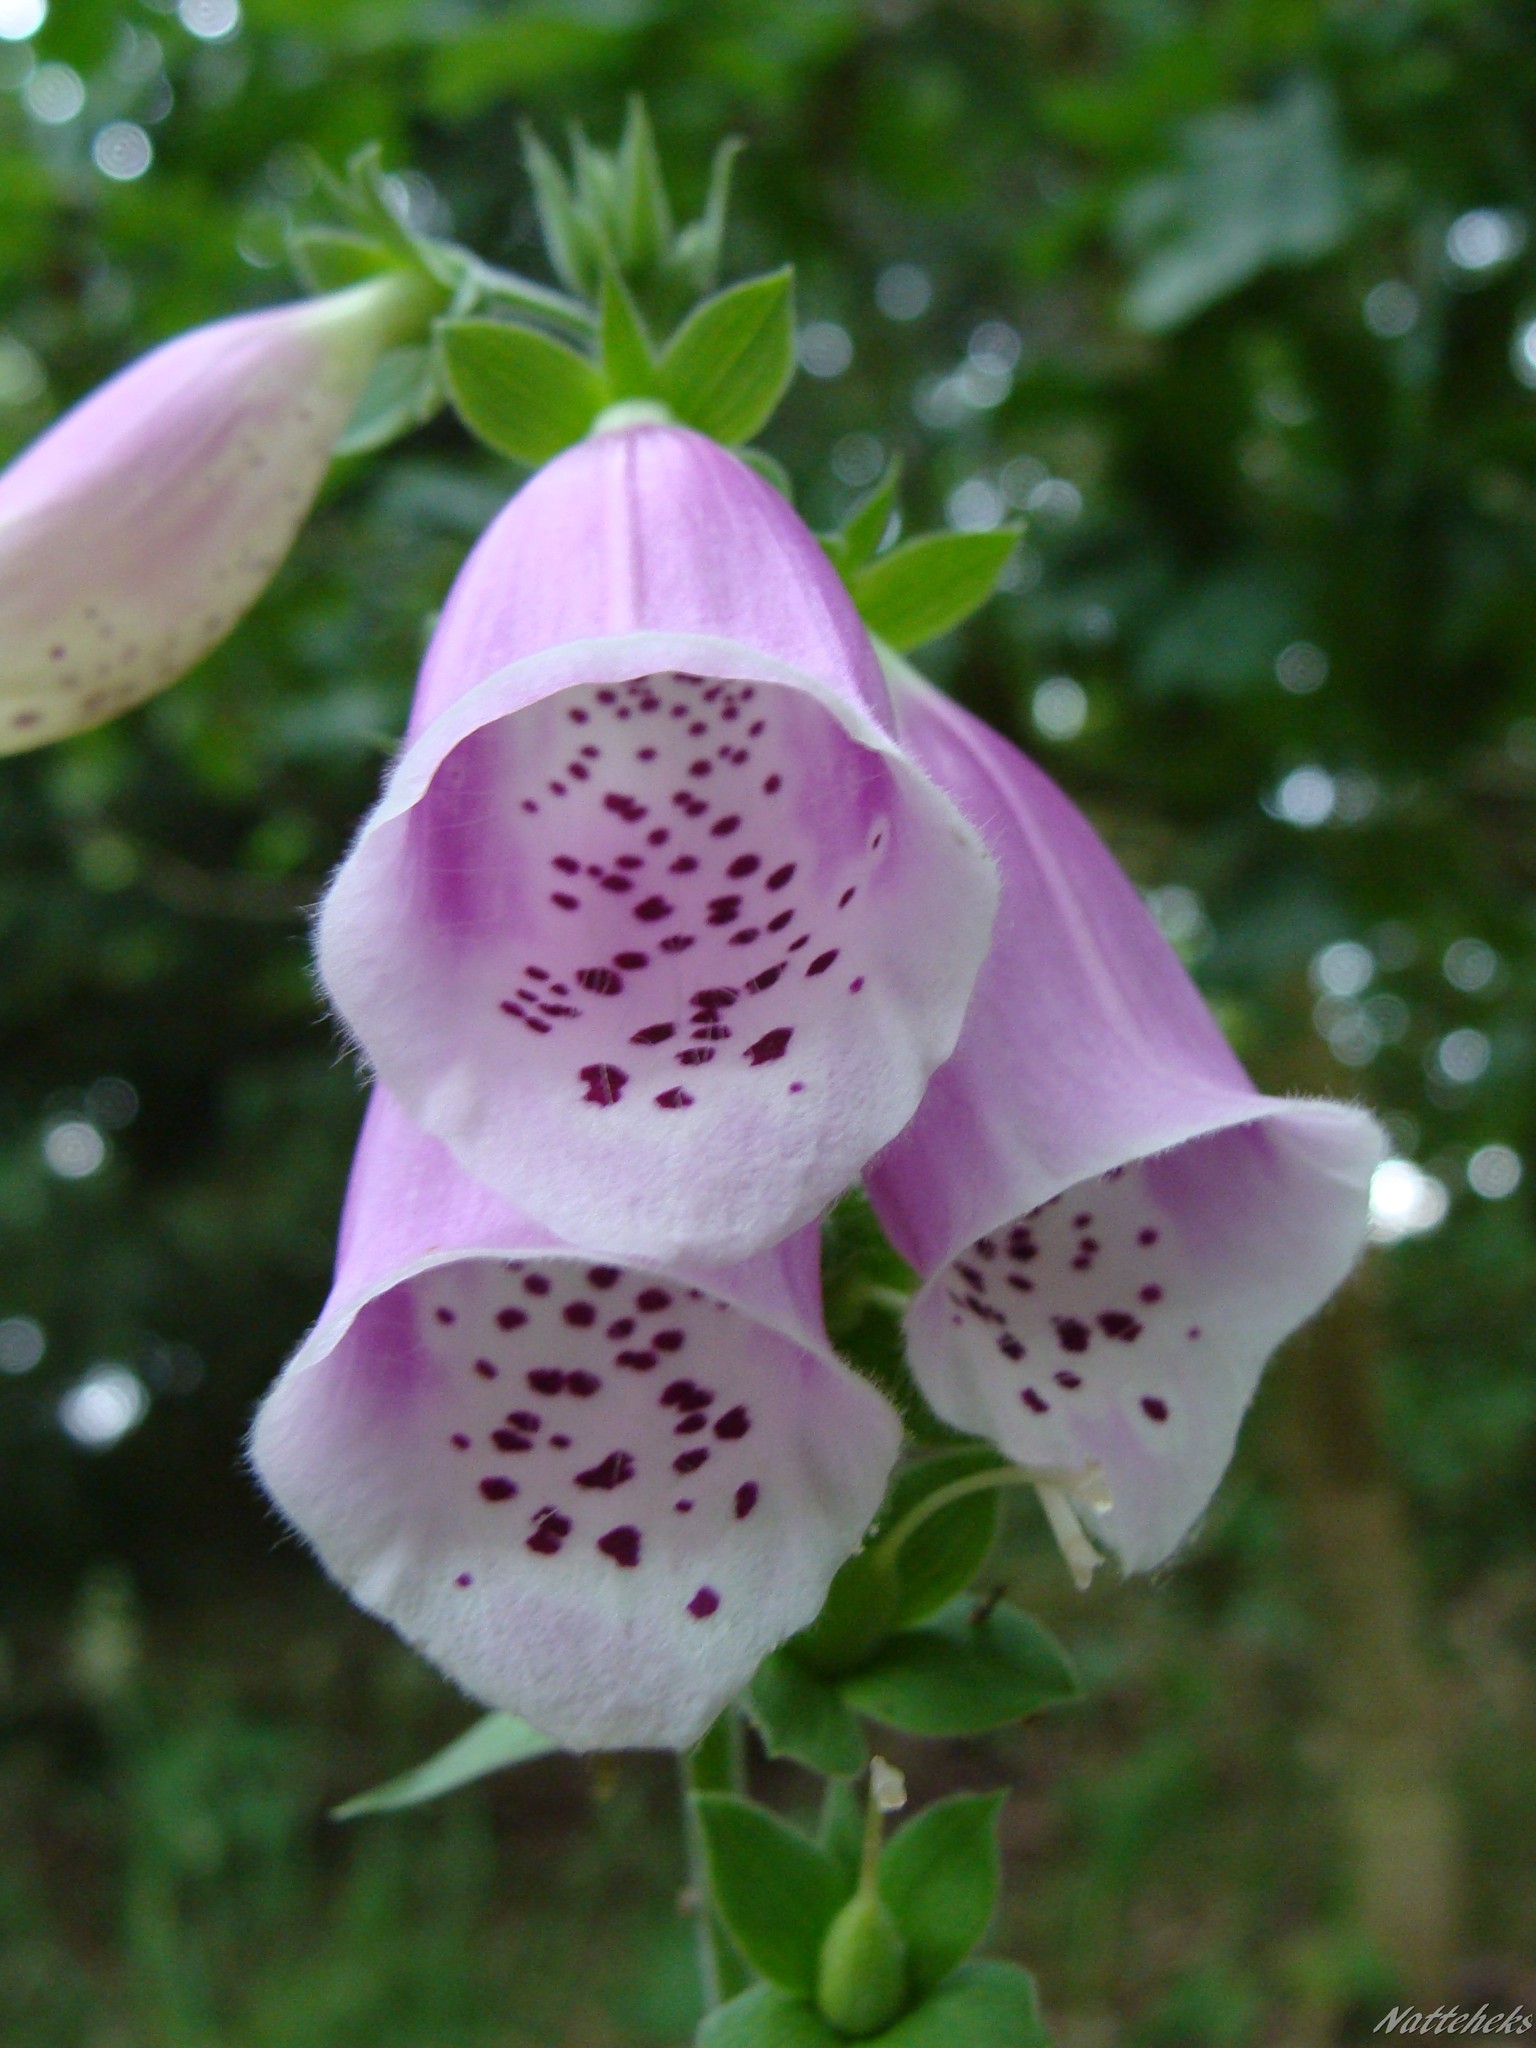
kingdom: Plantae
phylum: Tracheophyta
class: Magnoliopsida
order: Lamiales
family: Plantaginaceae
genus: Digitalis
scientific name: Digitalis purpurea
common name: Foxglove
